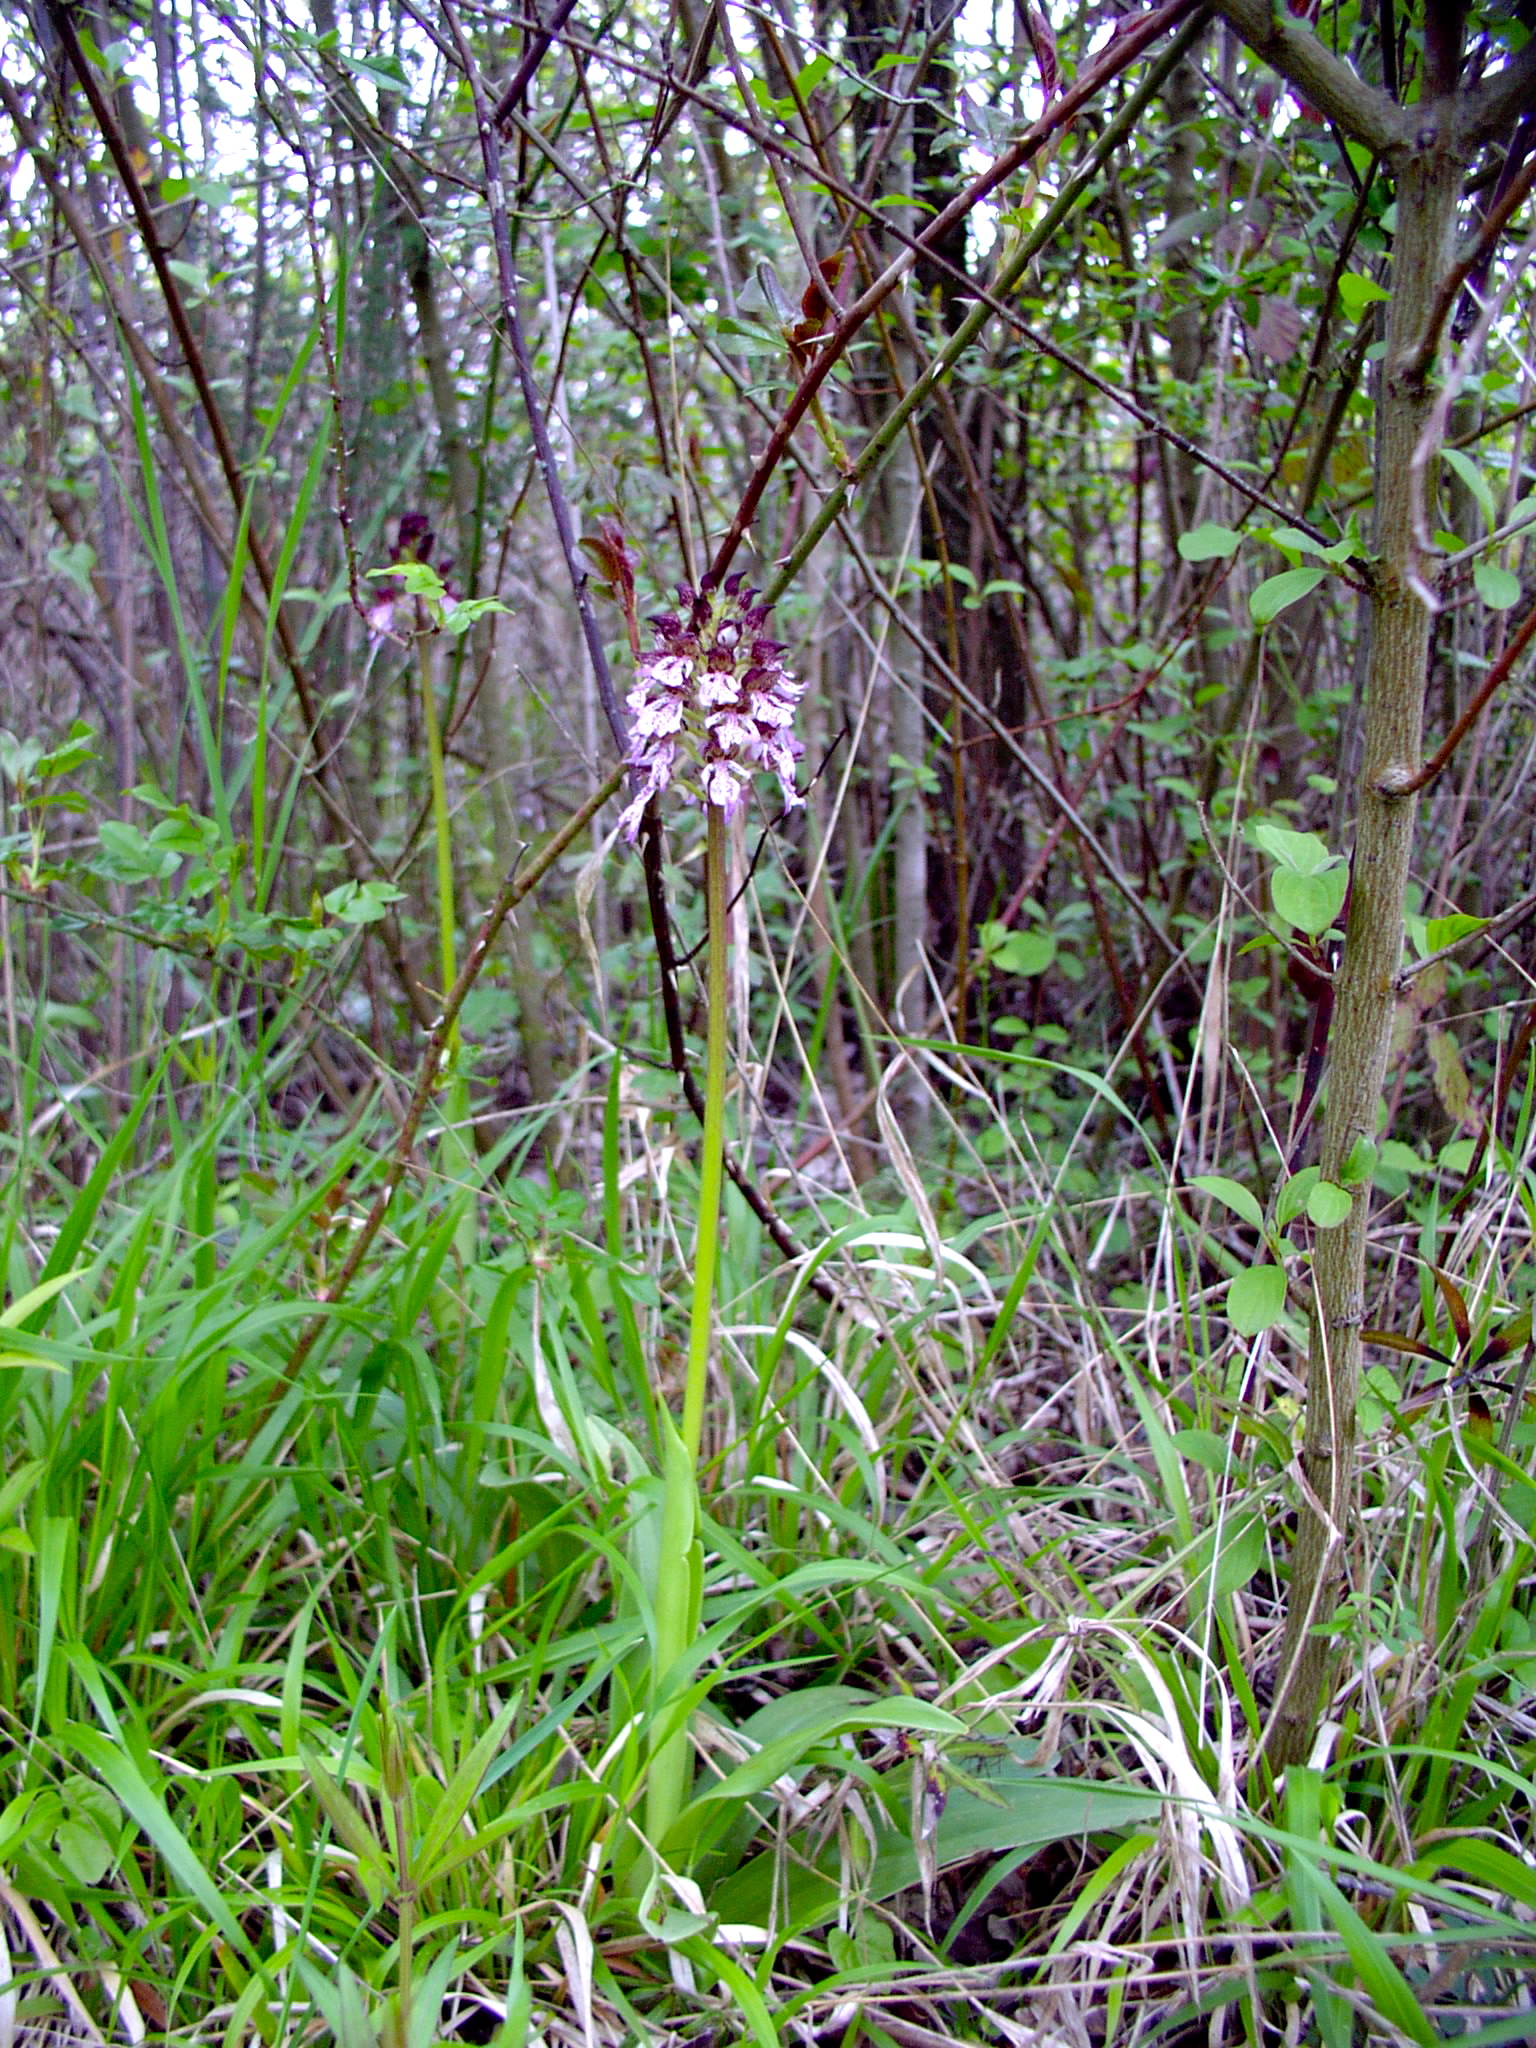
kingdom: Plantae
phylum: Tracheophyta
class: Liliopsida
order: Asparagales
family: Orchidaceae
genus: Orchis
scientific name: Orchis purpurea
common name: Lady orchid
